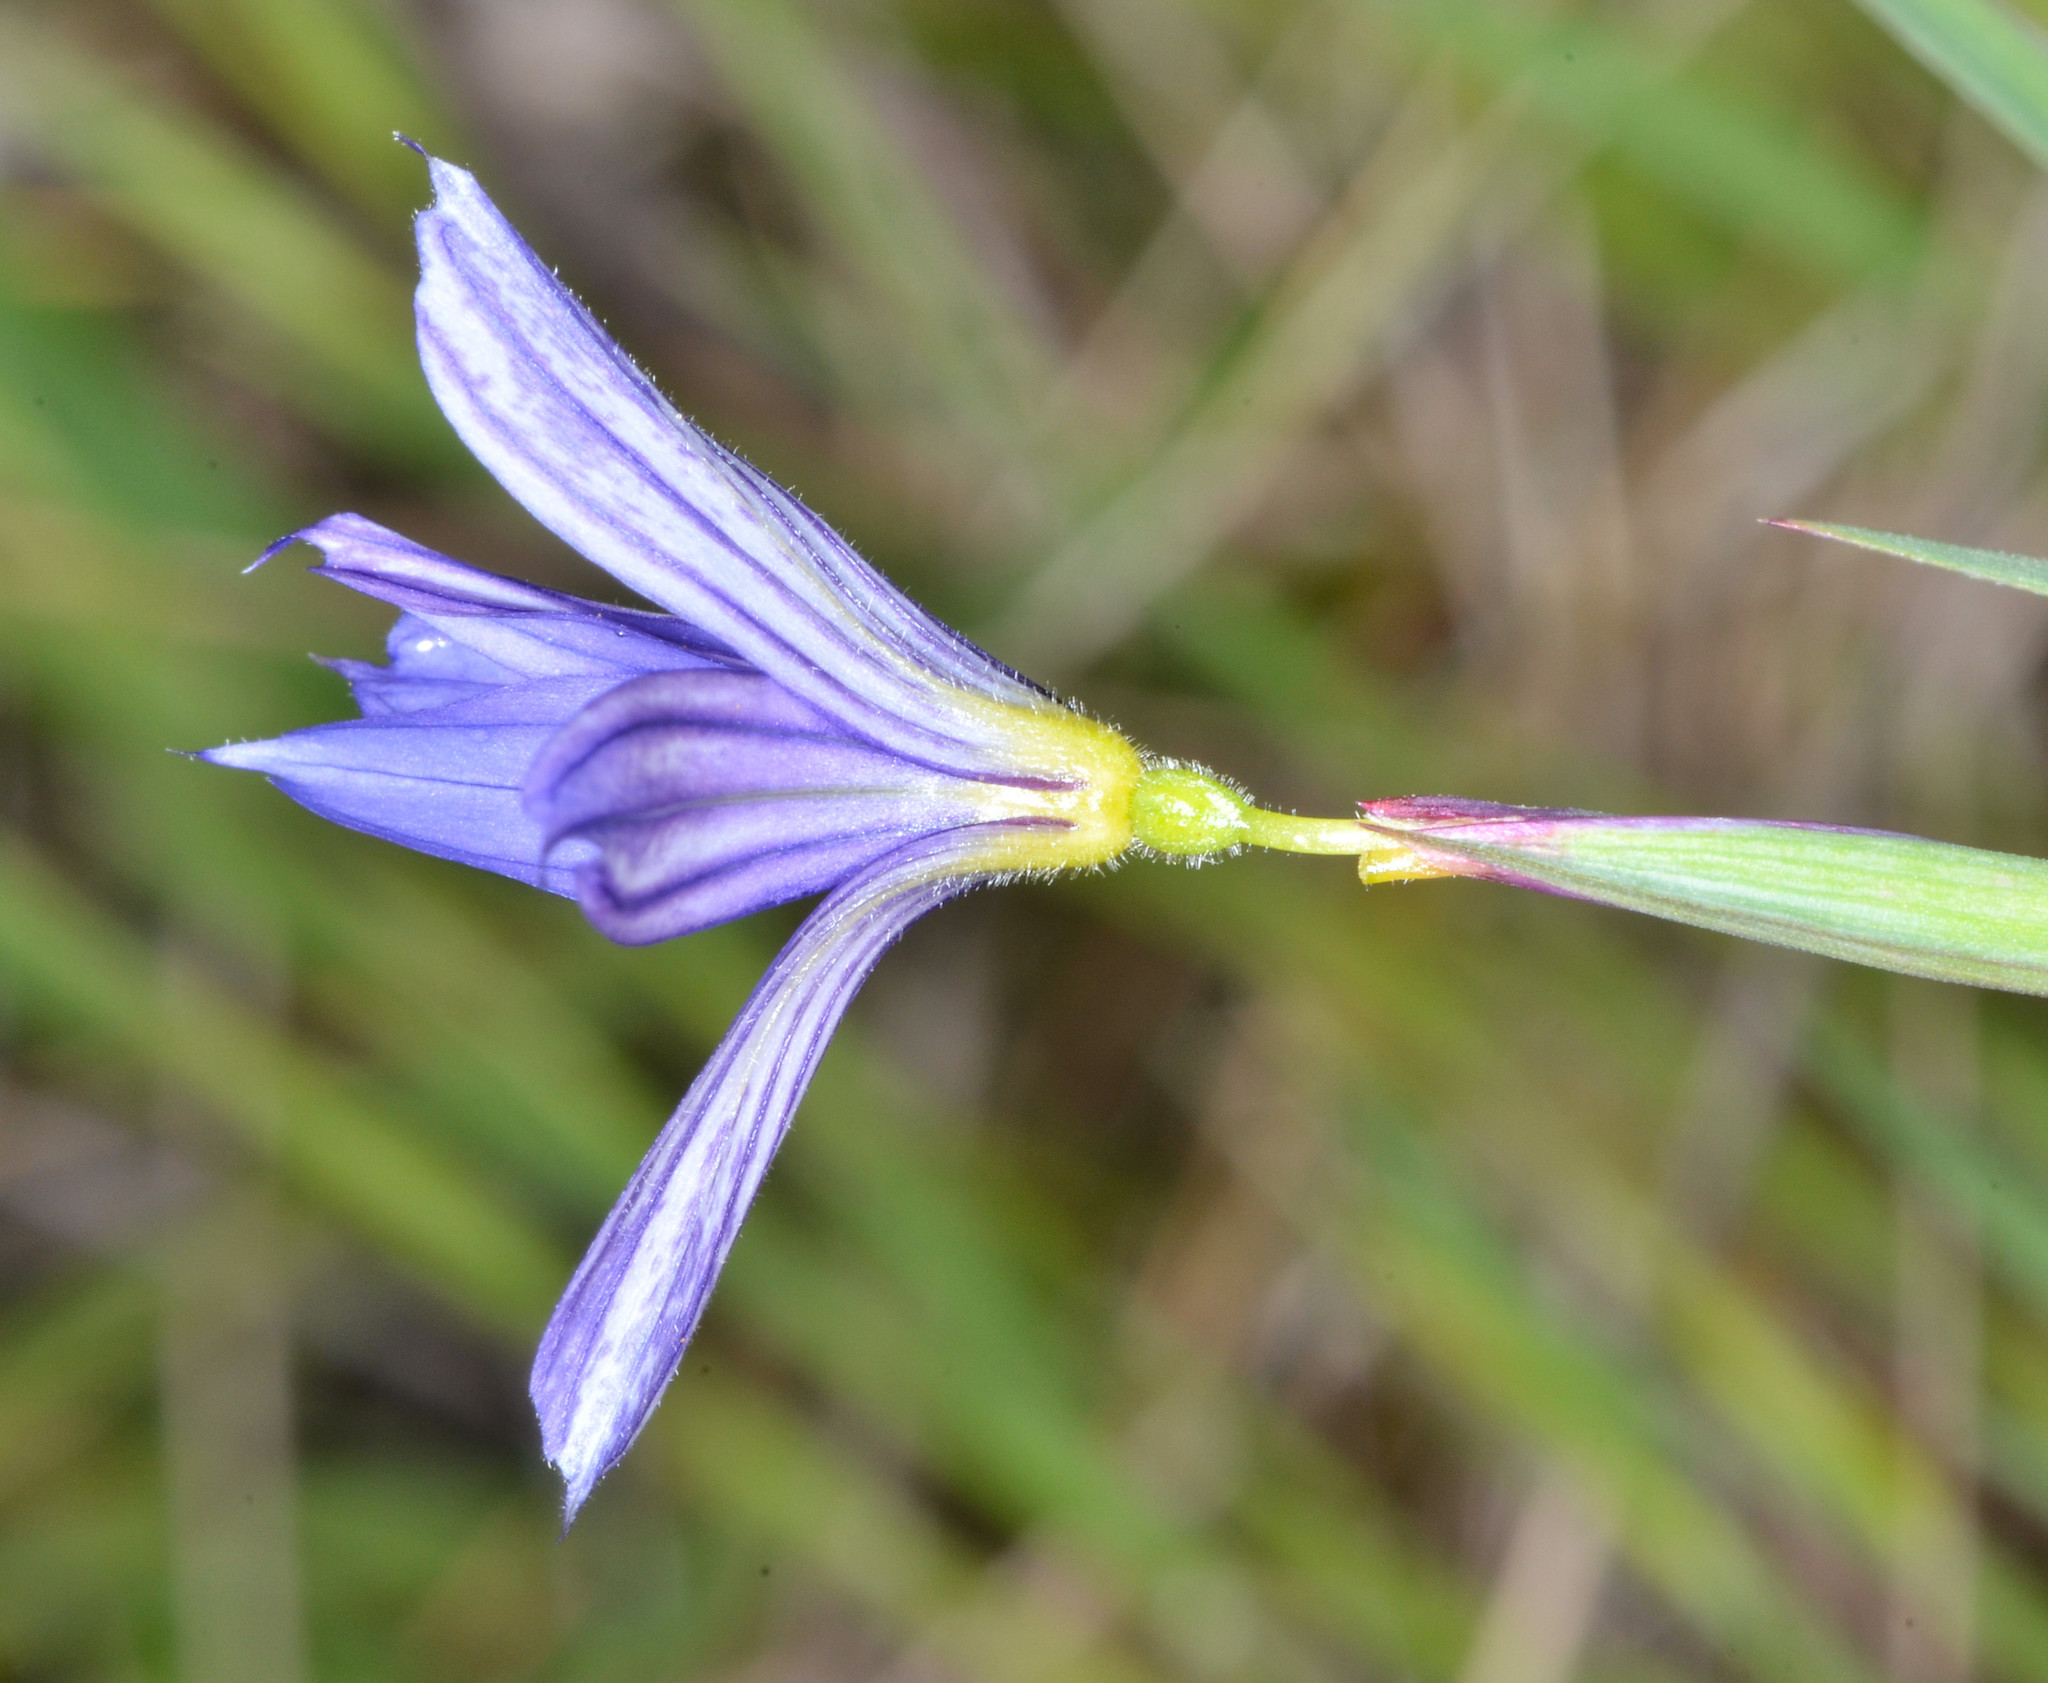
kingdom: Plantae
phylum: Tracheophyta
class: Liliopsida
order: Asparagales
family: Iridaceae
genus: Sisyrinchium
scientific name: Sisyrinchium bellum
